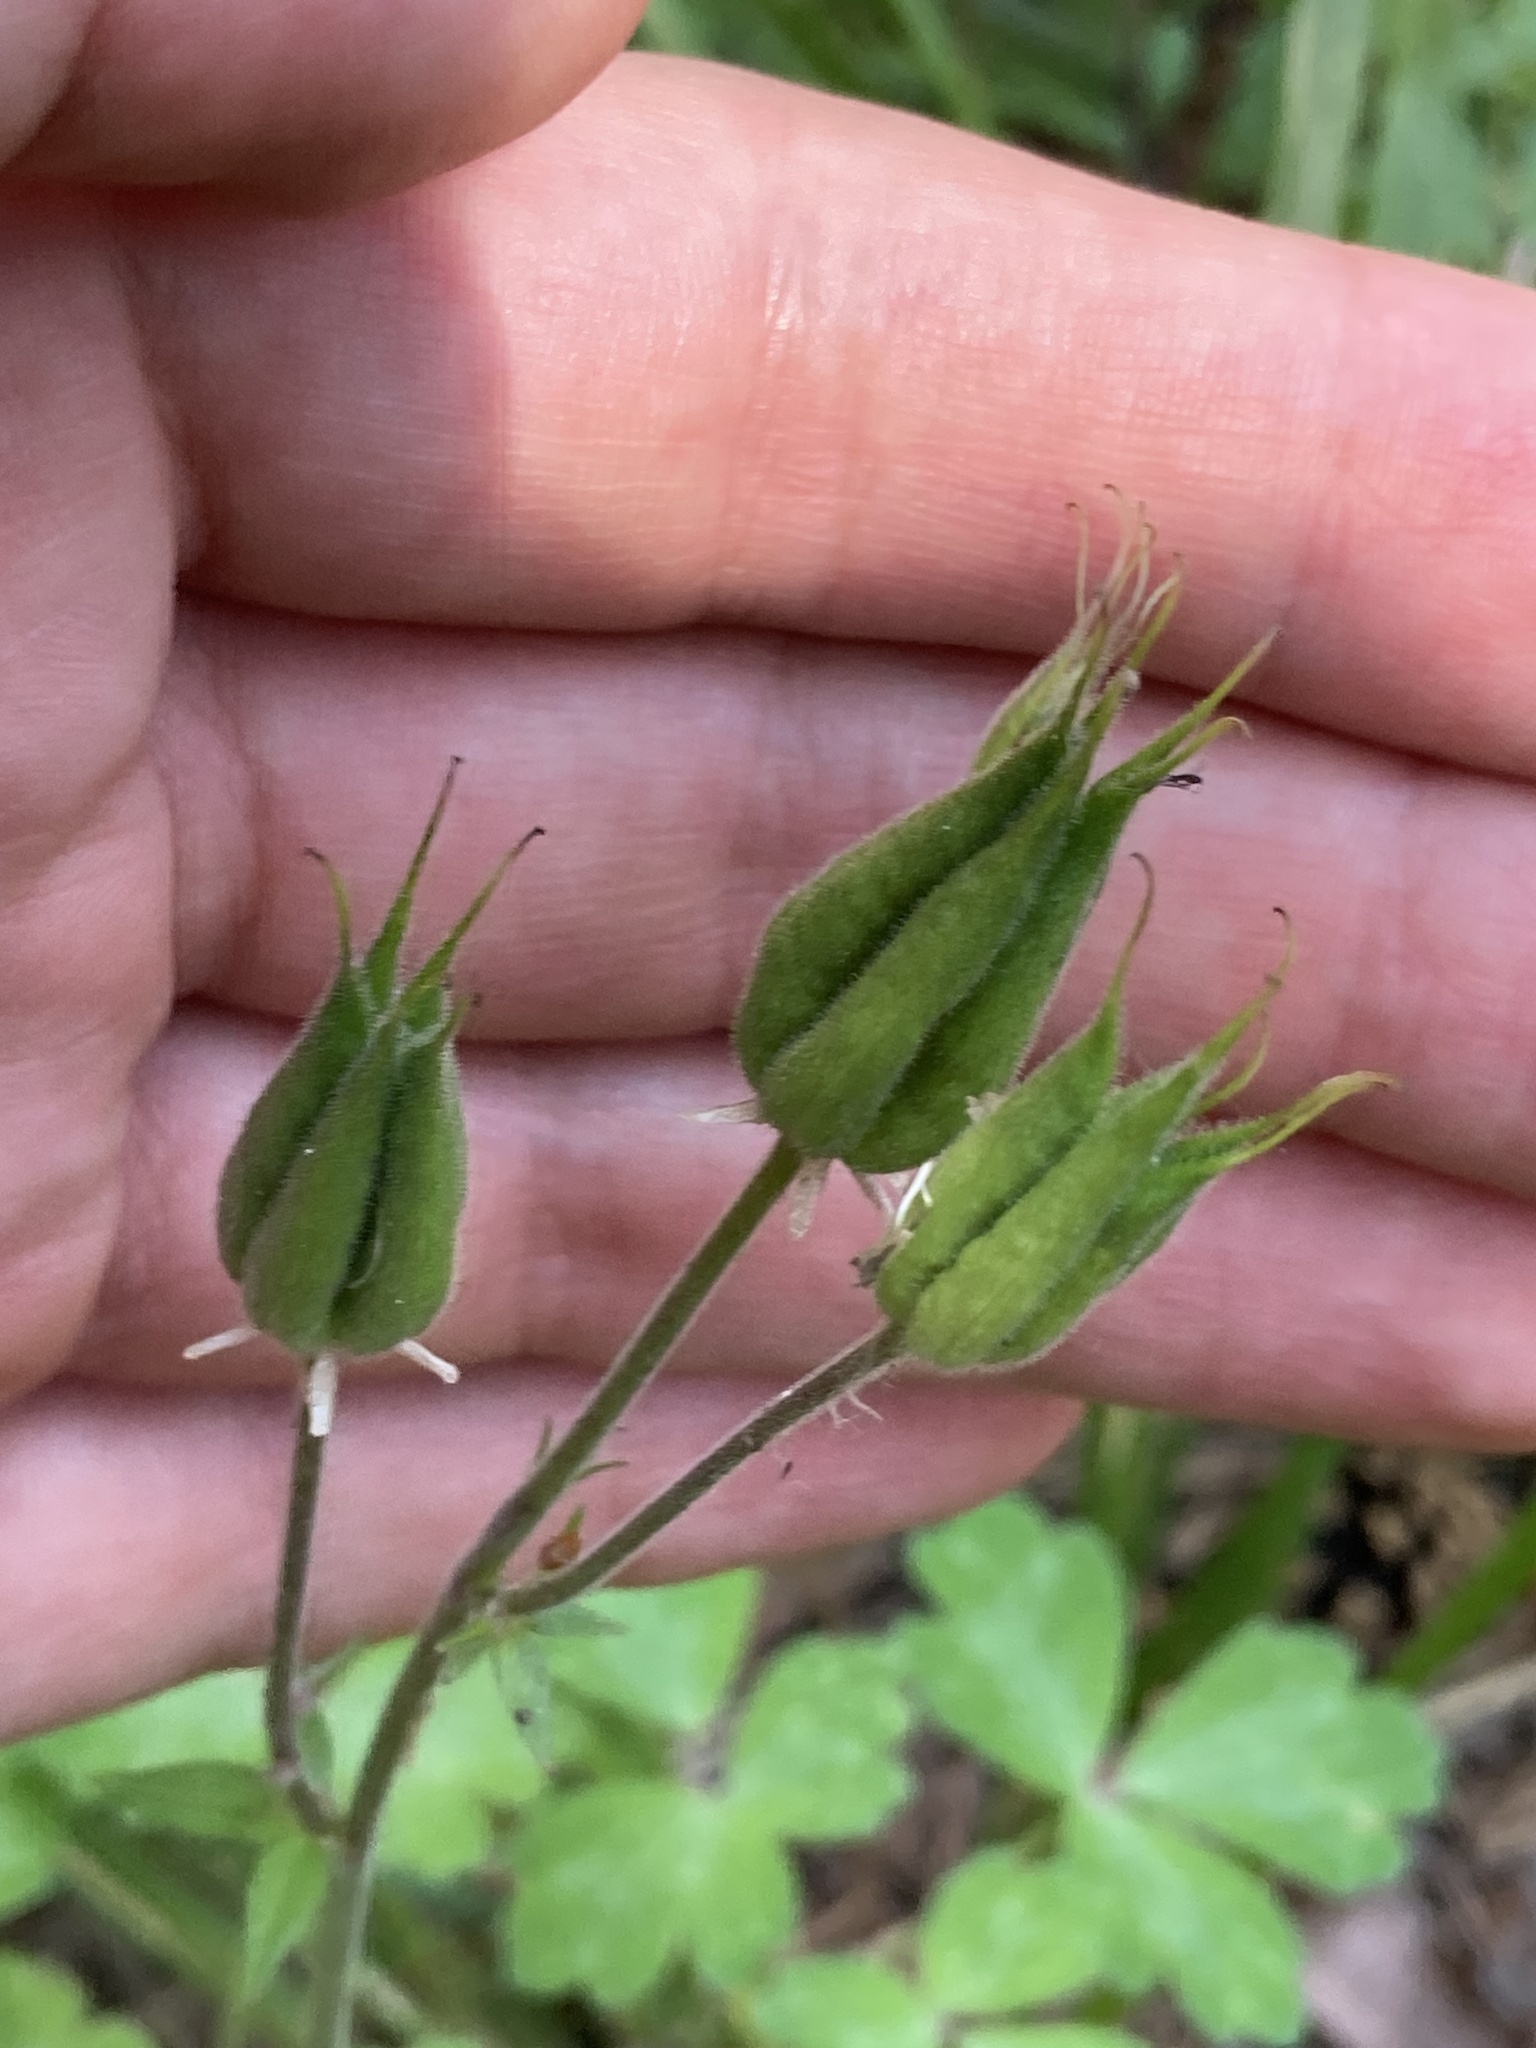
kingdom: Plantae
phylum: Tracheophyta
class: Magnoliopsida
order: Ranunculales
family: Ranunculaceae
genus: Aquilegia
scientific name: Aquilegia vulgaris
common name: Columbine
